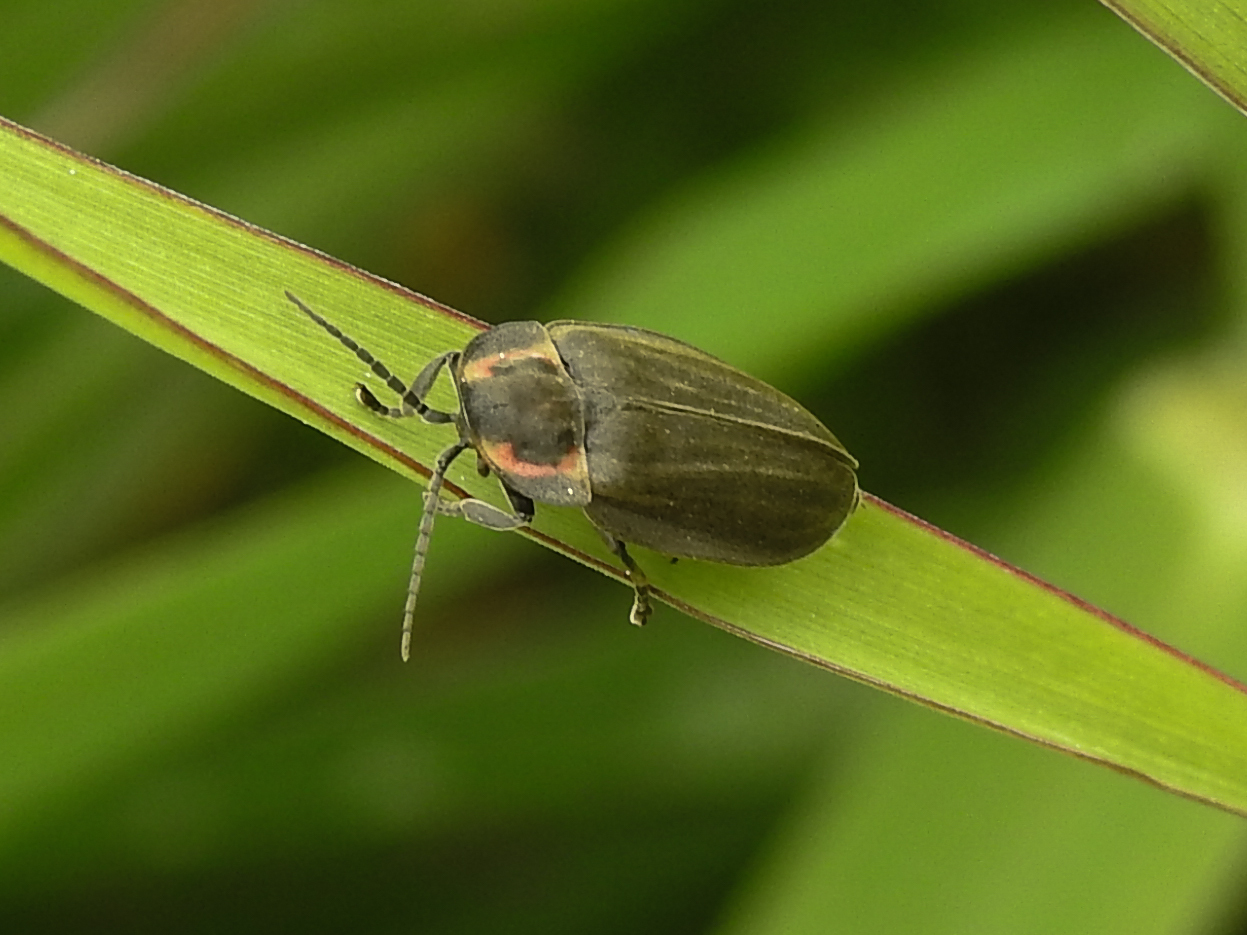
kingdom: Animalia
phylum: Arthropoda
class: Insecta
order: Coleoptera
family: Lampyridae
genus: Photinus
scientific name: Photinus corrusca
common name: Winter firefly
